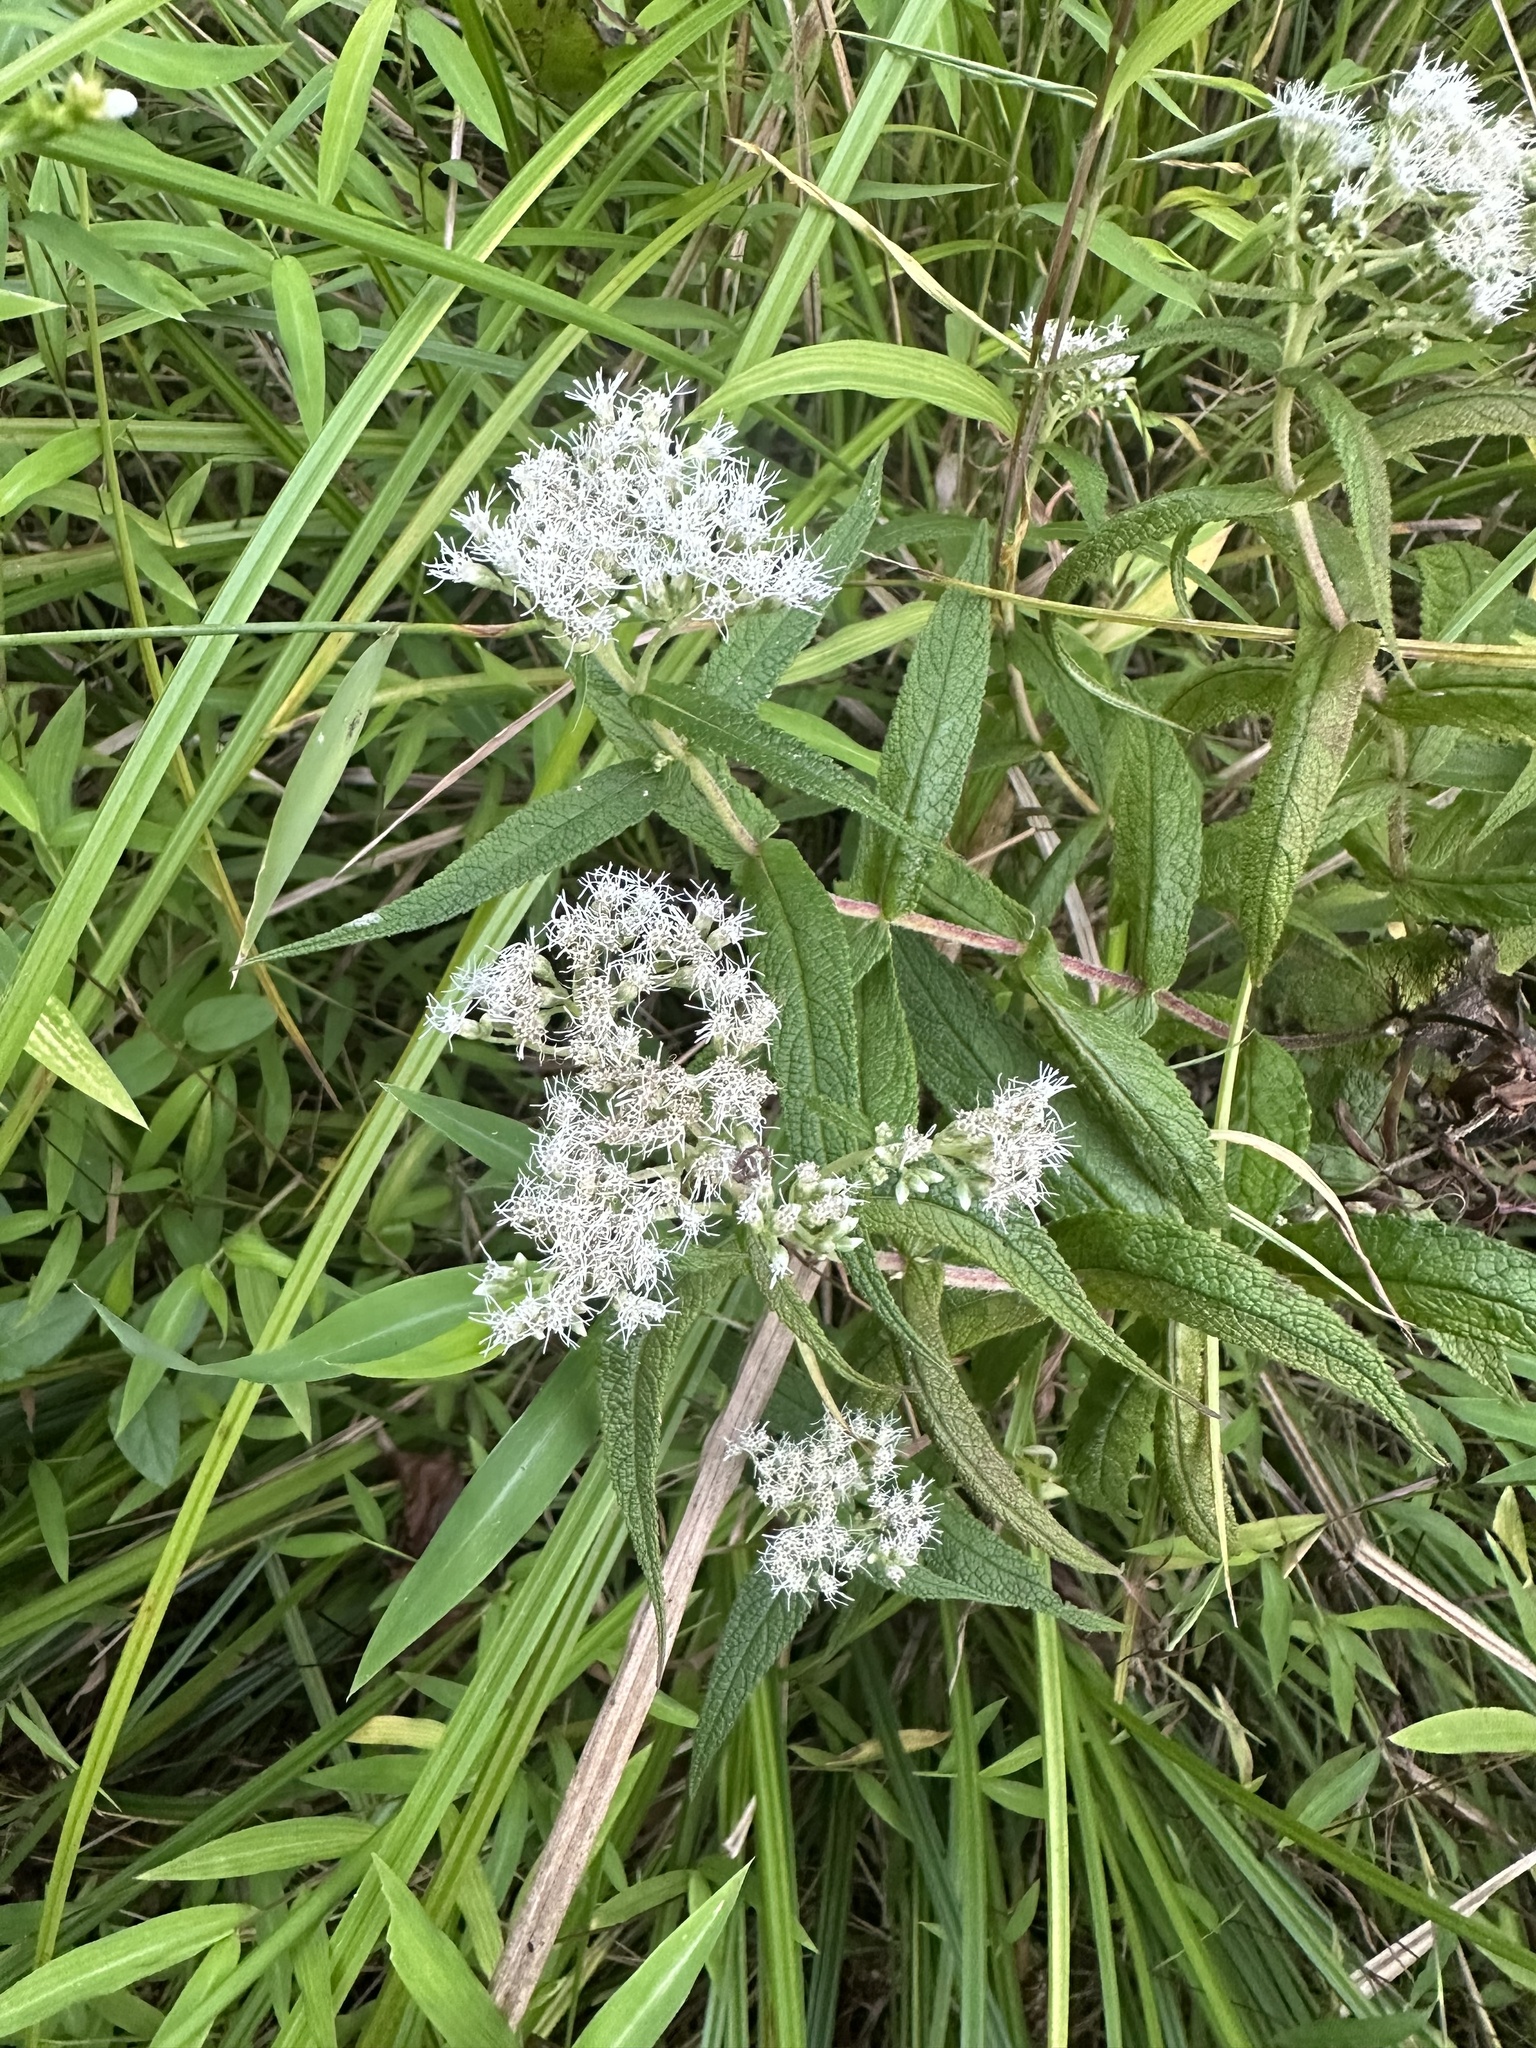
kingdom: Plantae
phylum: Tracheophyta
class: Magnoliopsida
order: Asterales
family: Asteraceae
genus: Eupatorium
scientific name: Eupatorium perfoliatum
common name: Boneset
